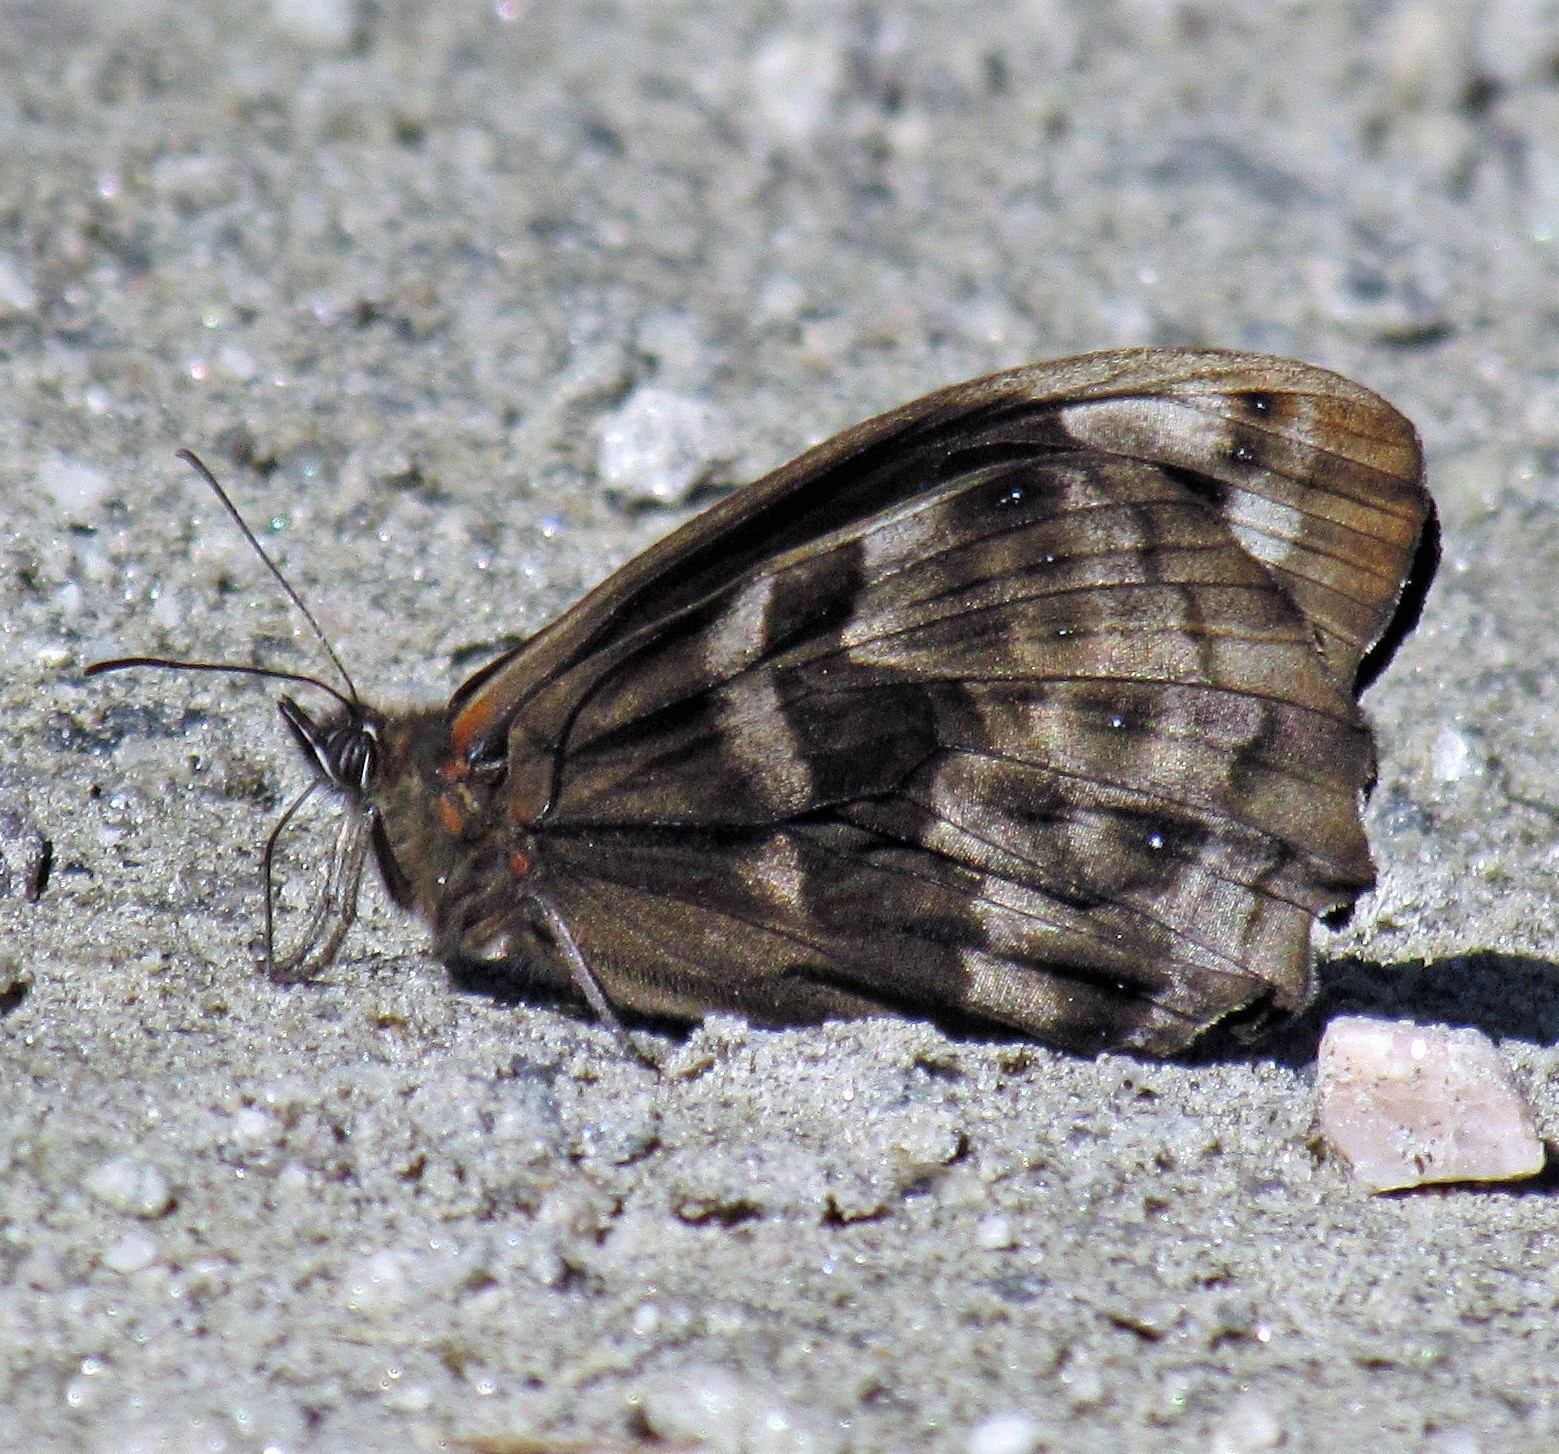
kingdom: Animalia
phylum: Arthropoda
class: Insecta
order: Lepidoptera
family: Nymphalidae
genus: Pronophila
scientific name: Pronophila unifasciata
